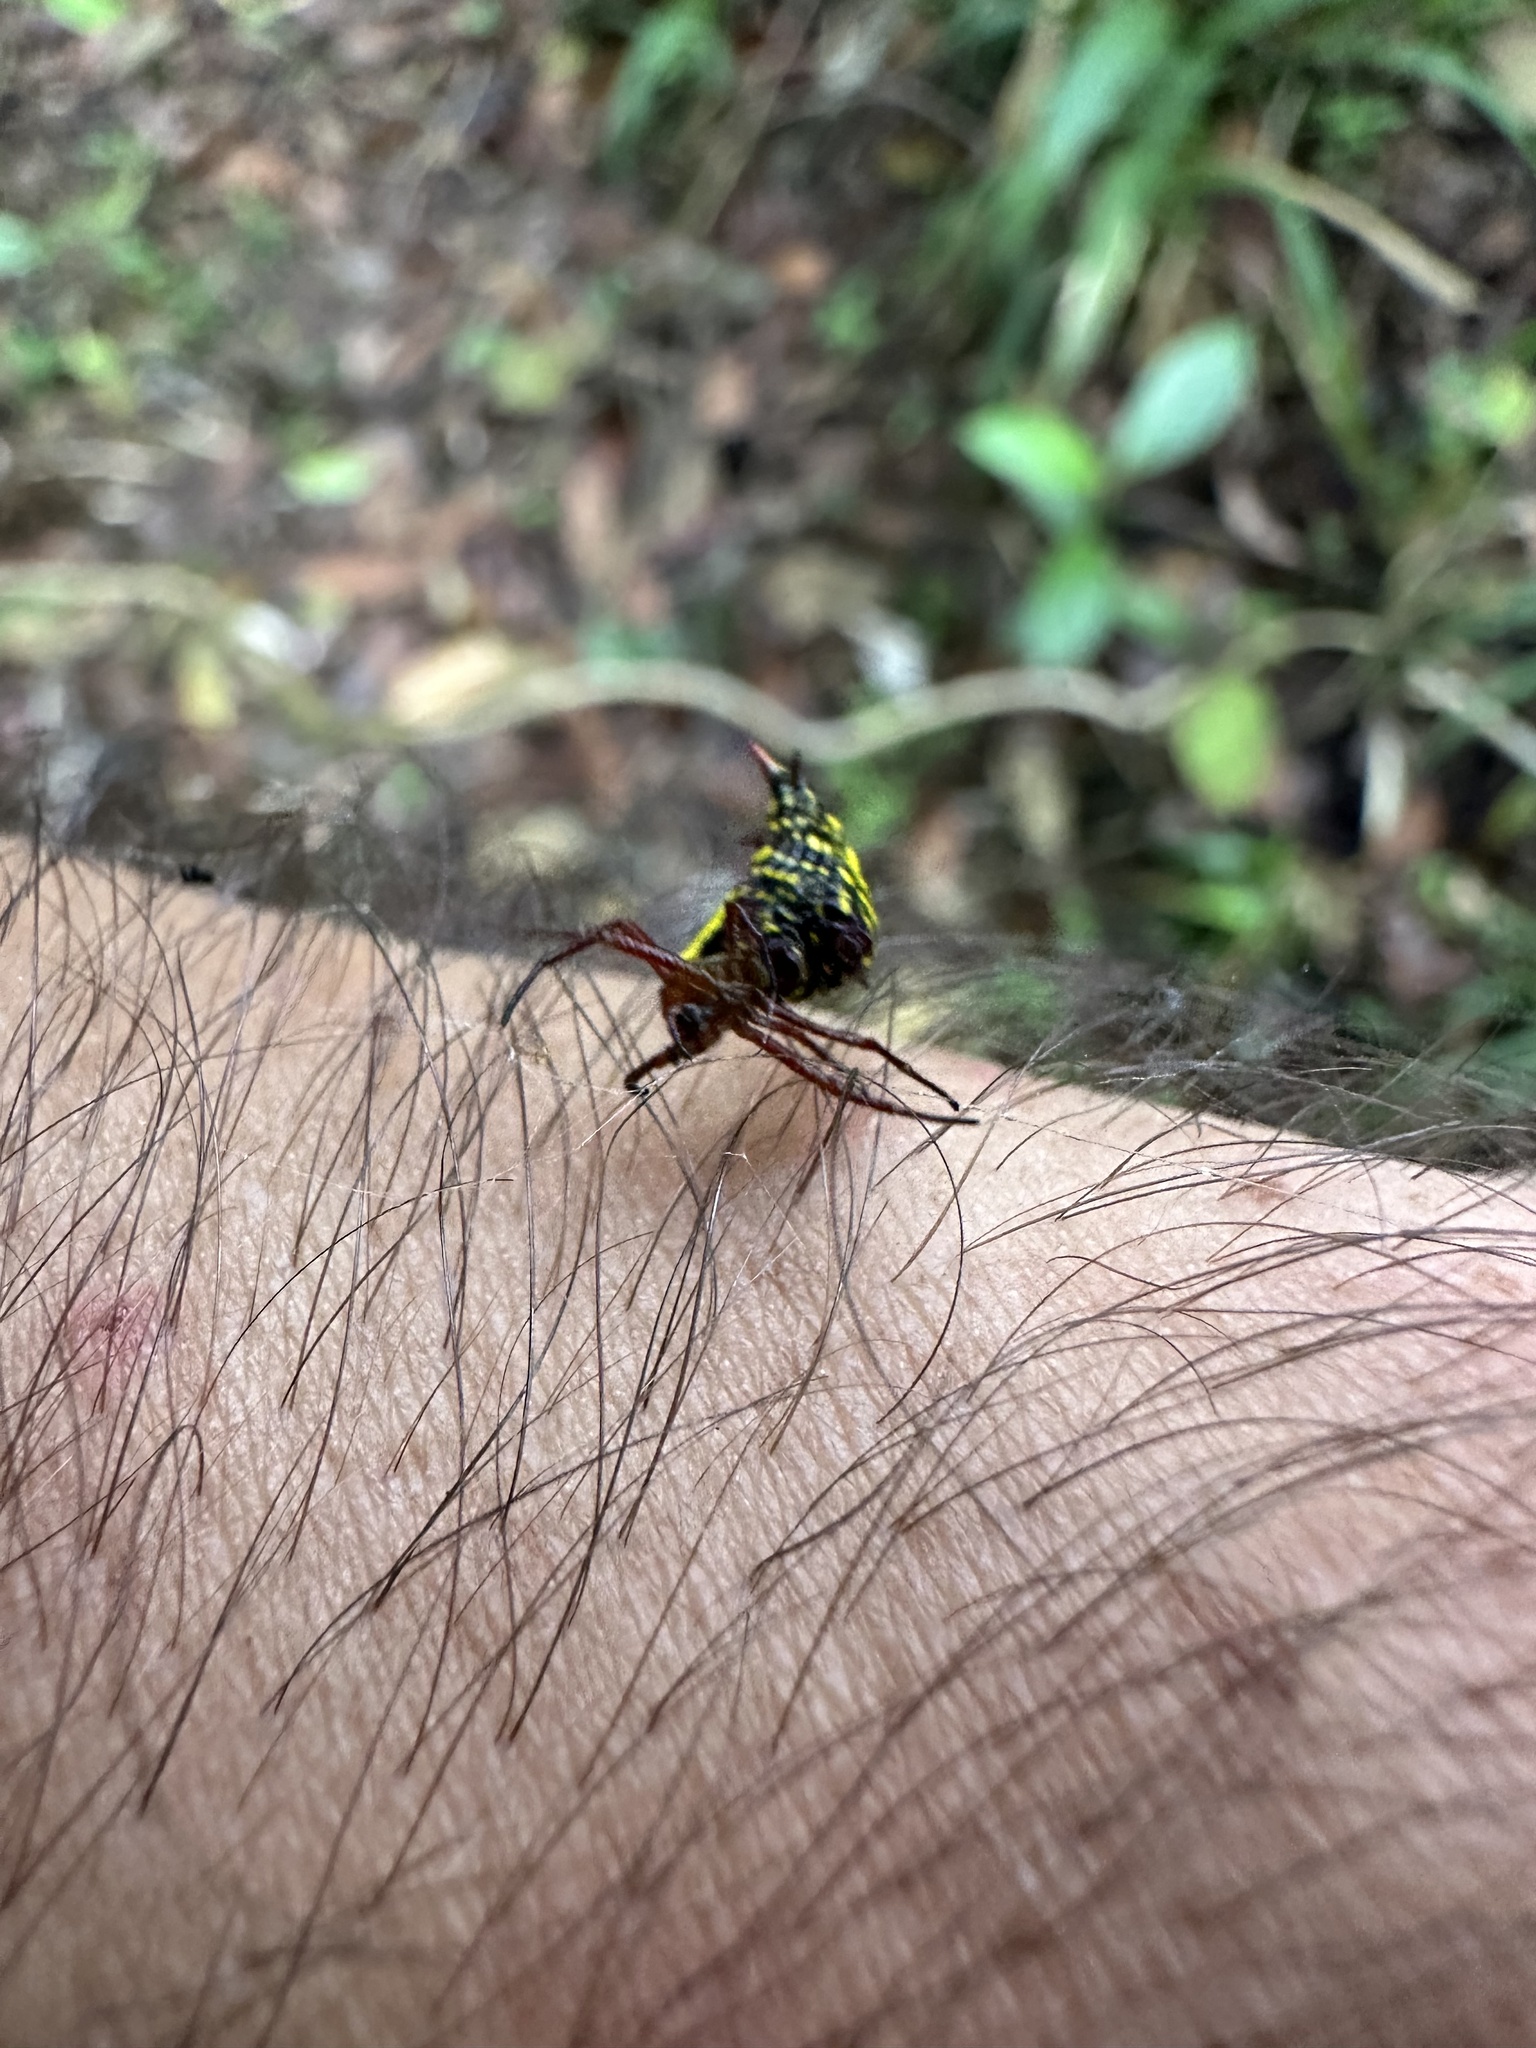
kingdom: Animalia
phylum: Arthropoda
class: Arachnida
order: Araneae
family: Araneidae
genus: Micrathena
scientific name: Micrathena lucasi
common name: Orb weavers
